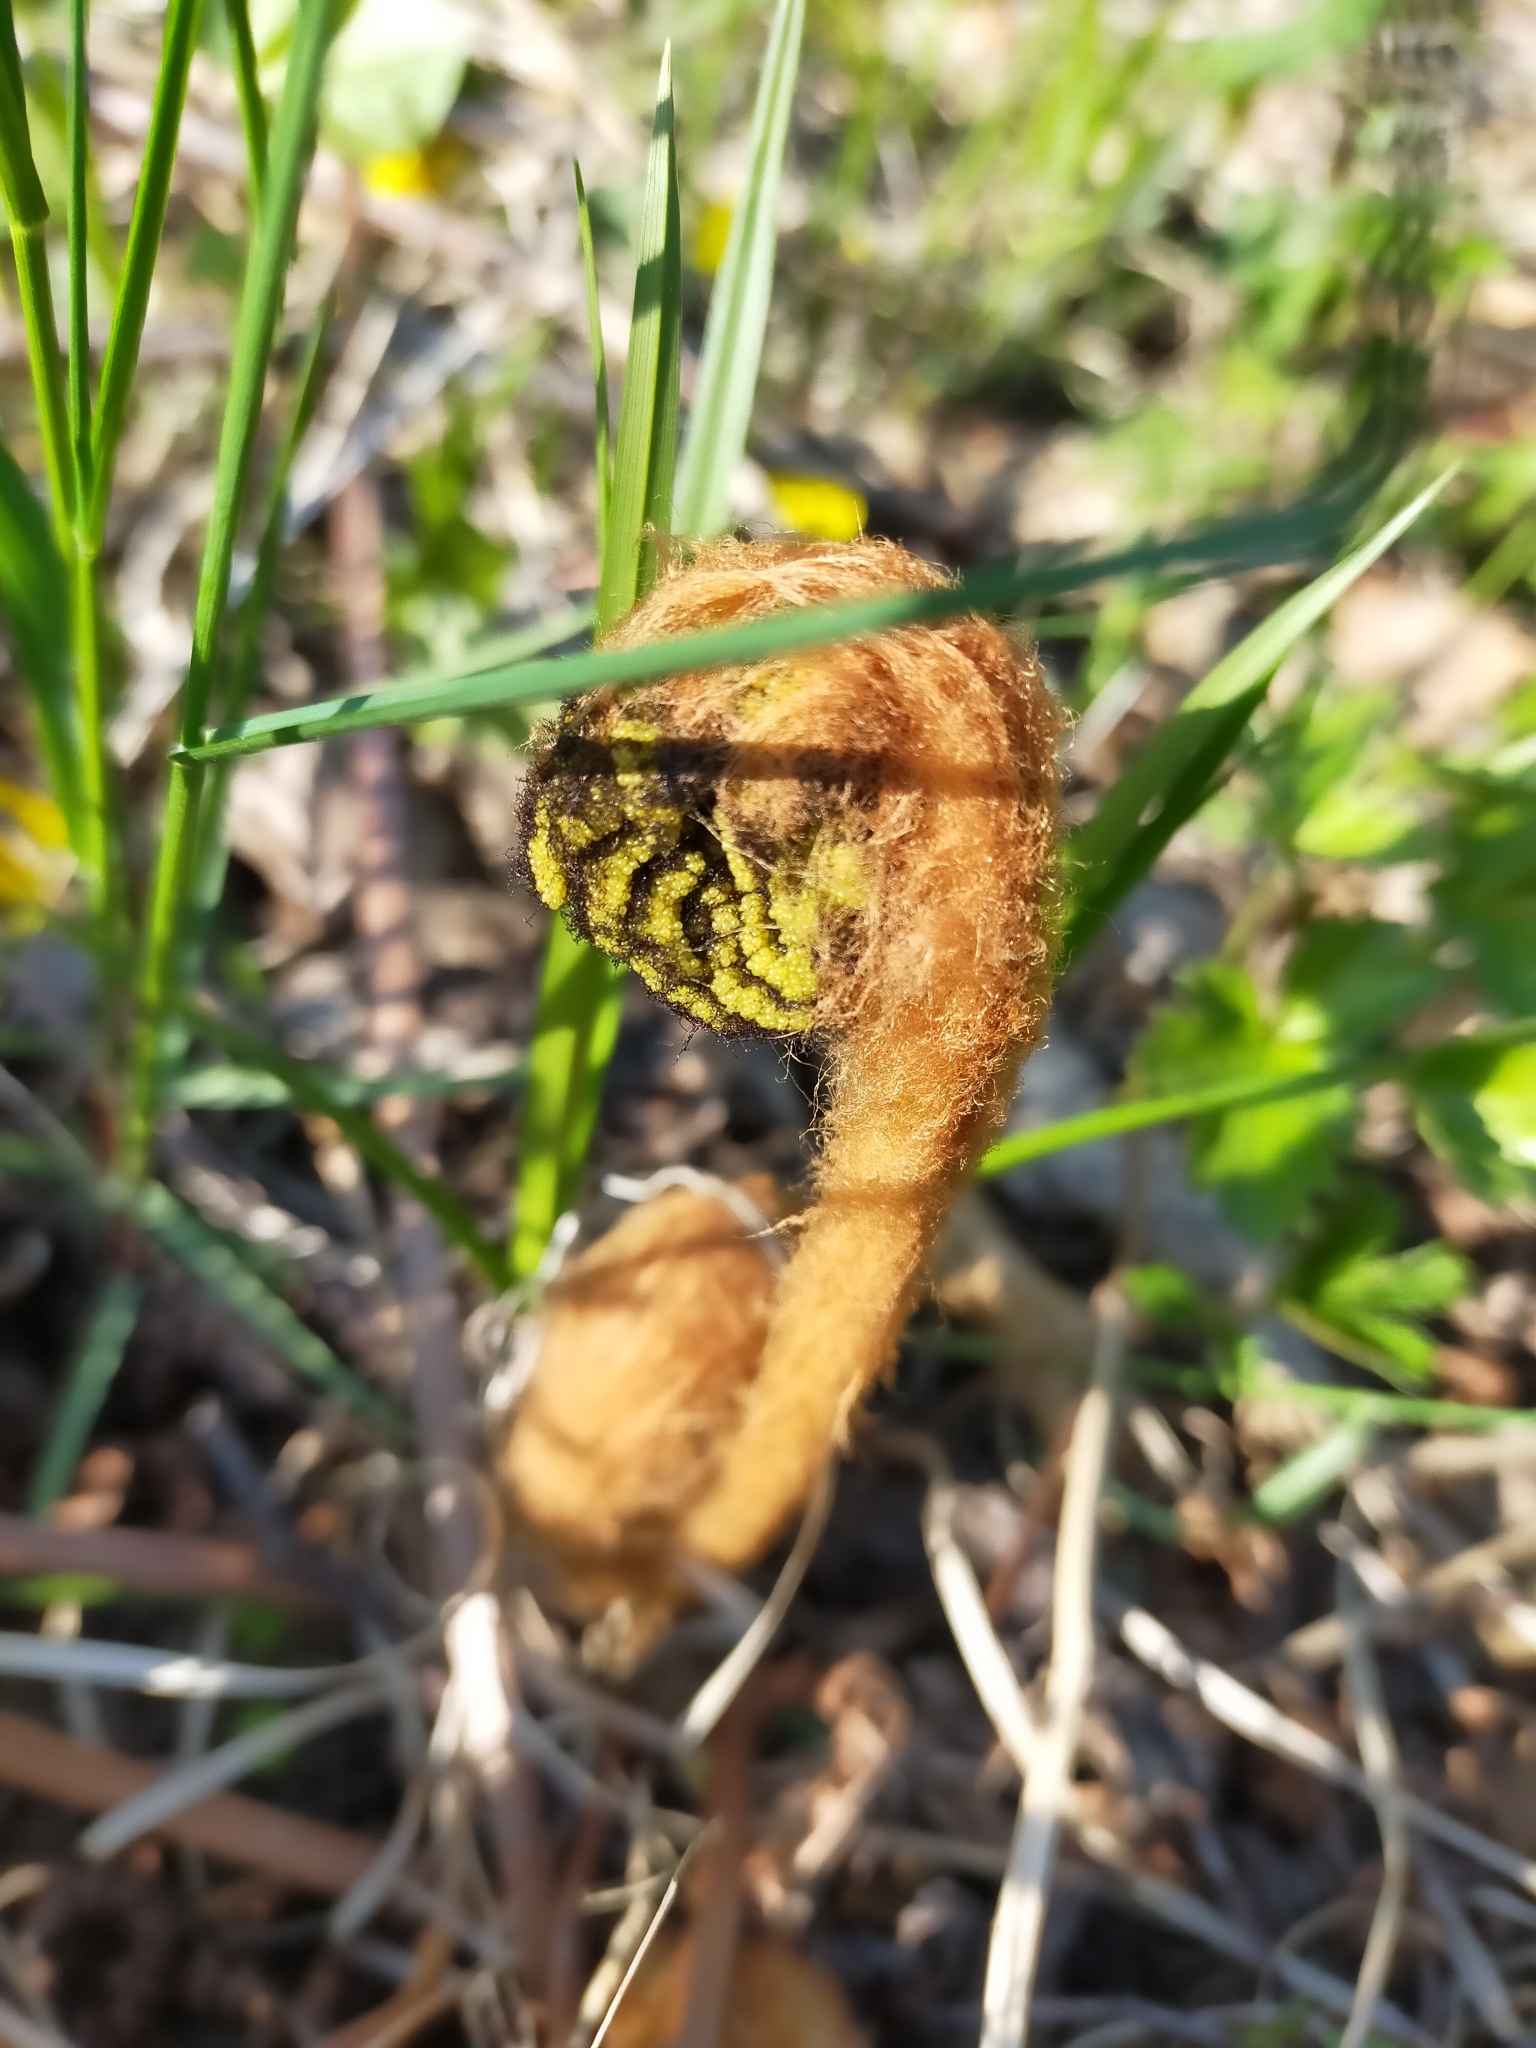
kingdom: Plantae
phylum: Tracheophyta
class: Polypodiopsida
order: Osmundales
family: Osmundaceae
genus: Osmundastrum
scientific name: Osmundastrum cinnamomeum
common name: Cinnamon fern
